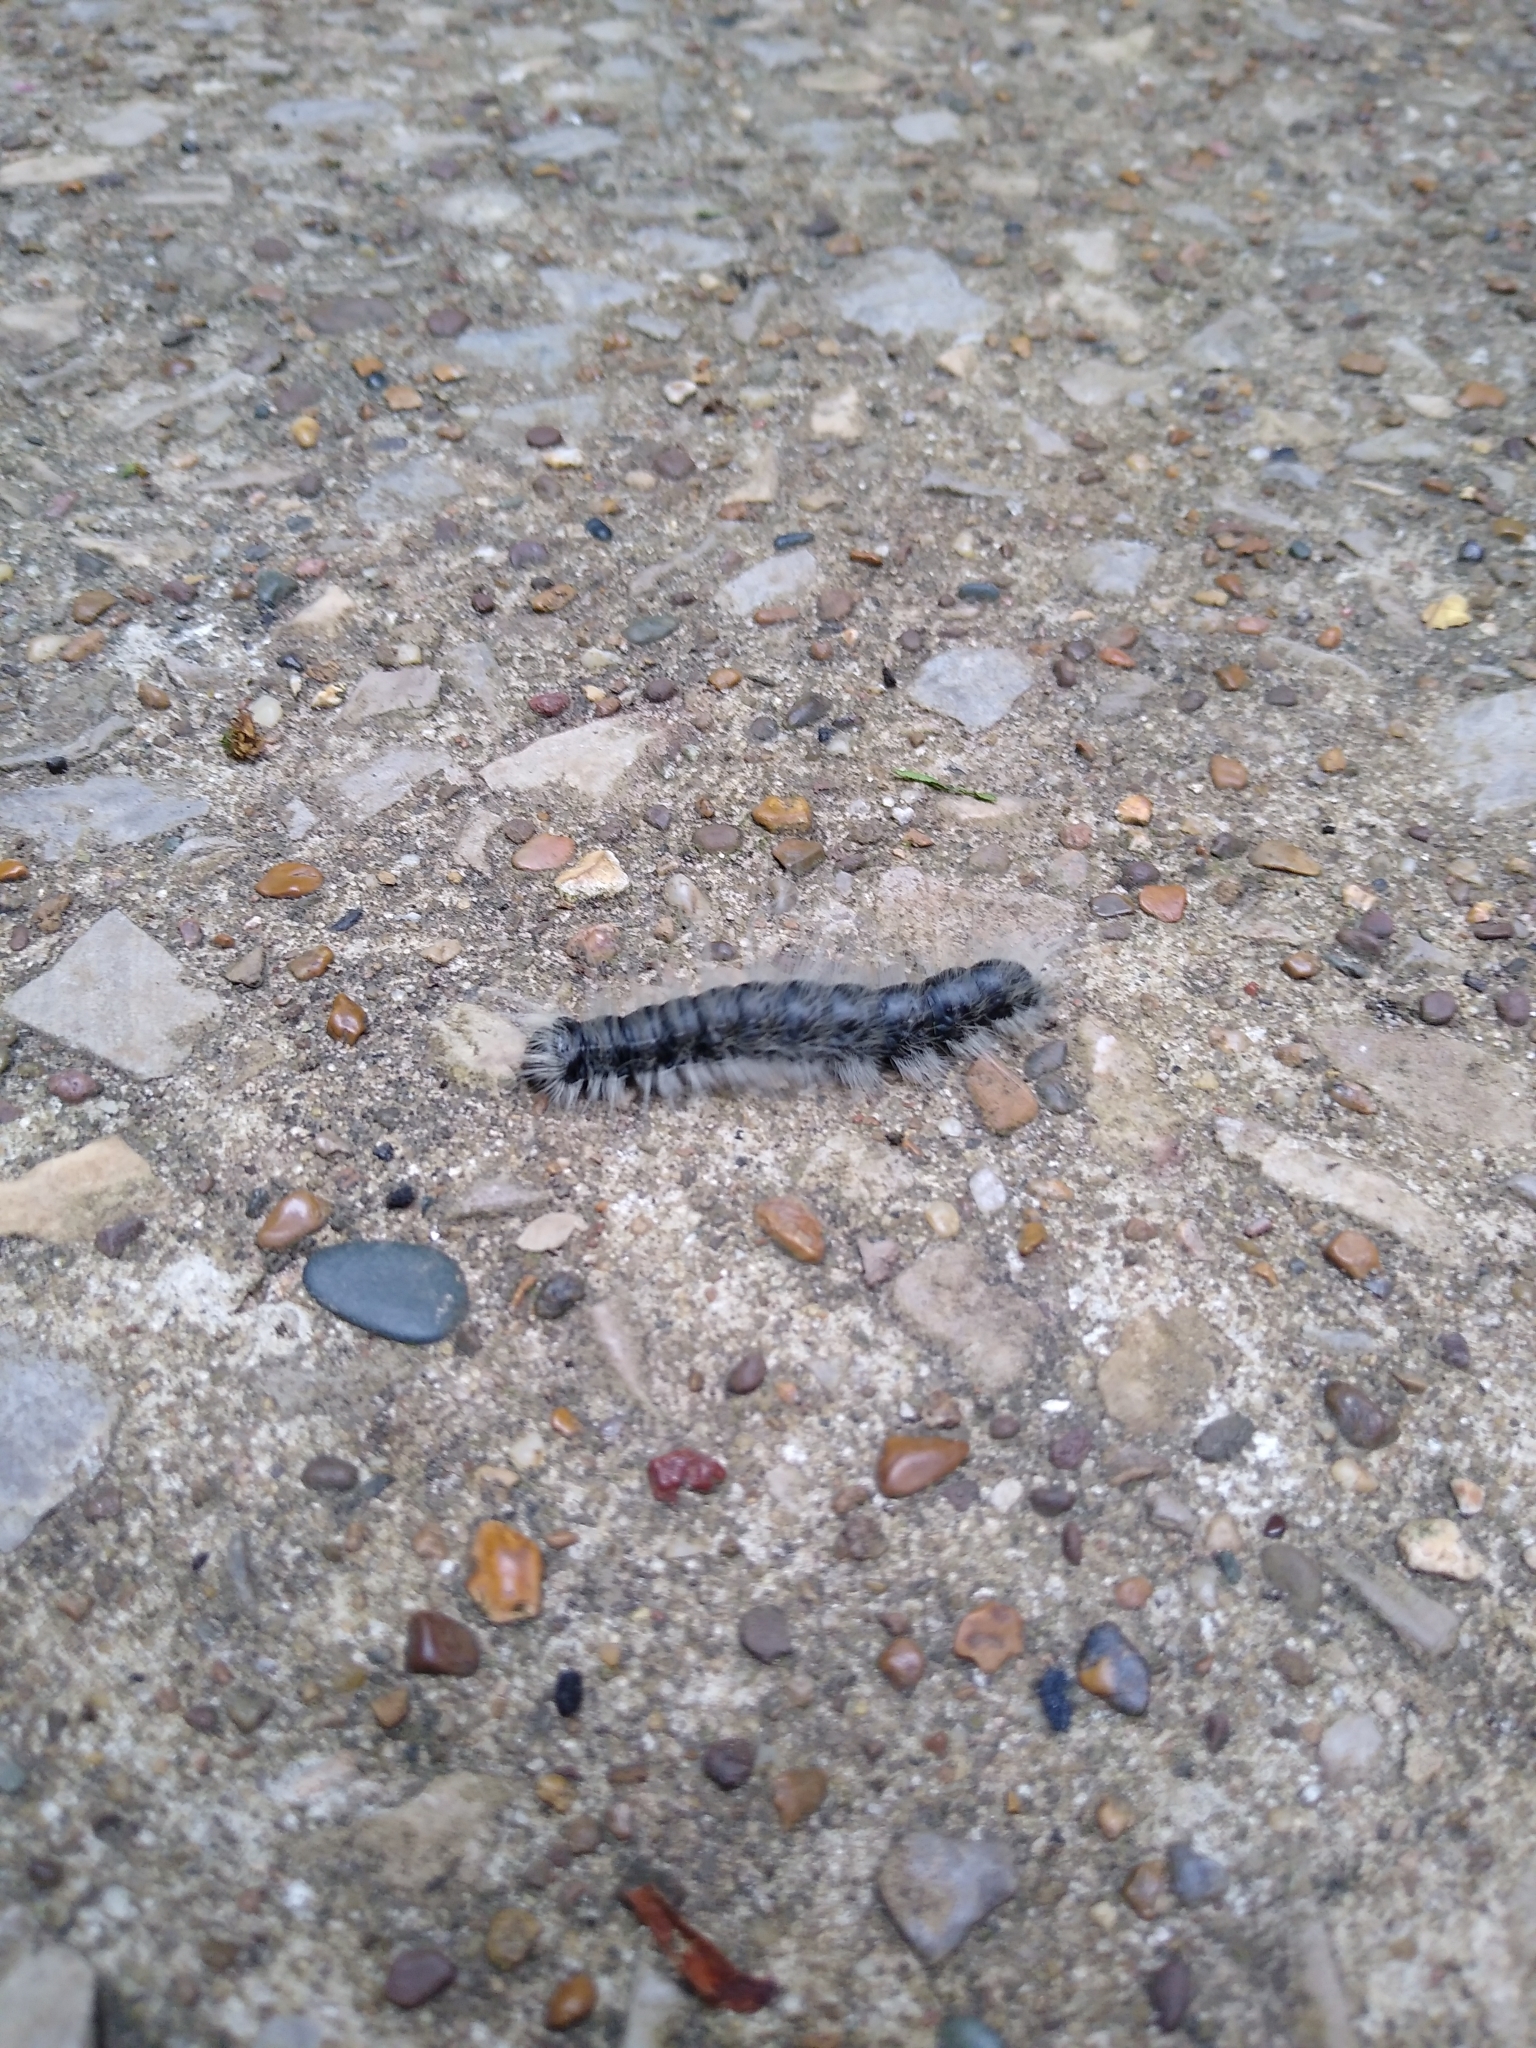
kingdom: Animalia
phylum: Arthropoda
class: Insecta
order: Lepidoptera
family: Notodontidae
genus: Datana
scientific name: Datana integerrima
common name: Walnut caterpillar
